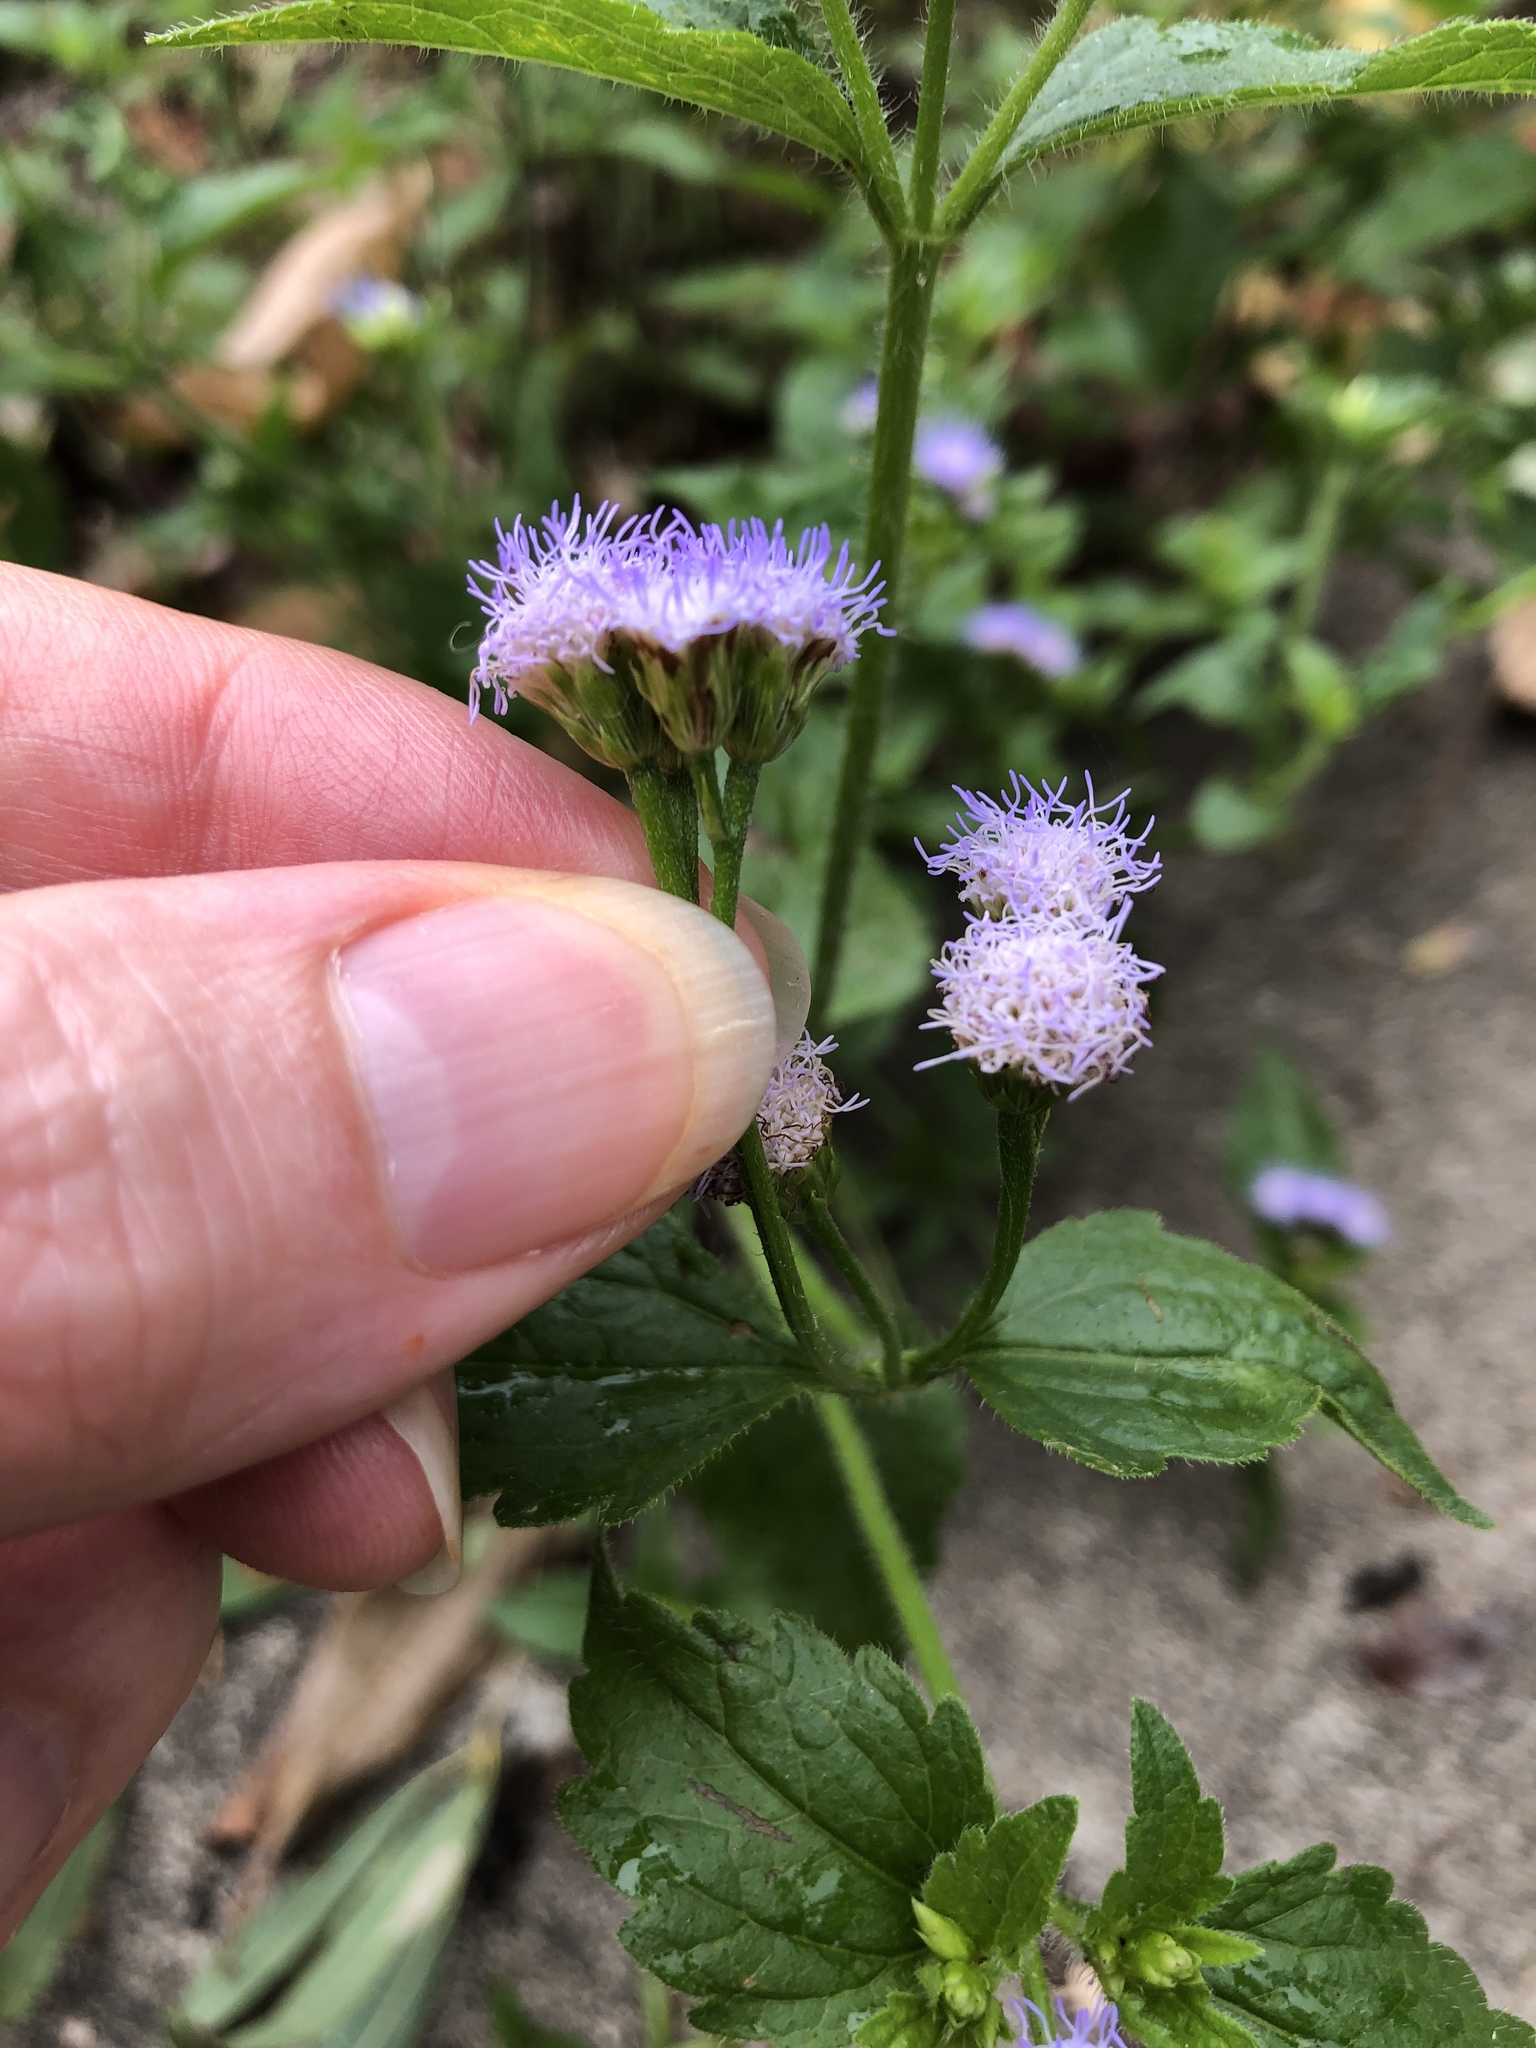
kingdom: Plantae
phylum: Tracheophyta
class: Magnoliopsida
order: Asterales
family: Asteraceae
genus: Praxelis
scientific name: Praxelis clematidea
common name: Praxelis
